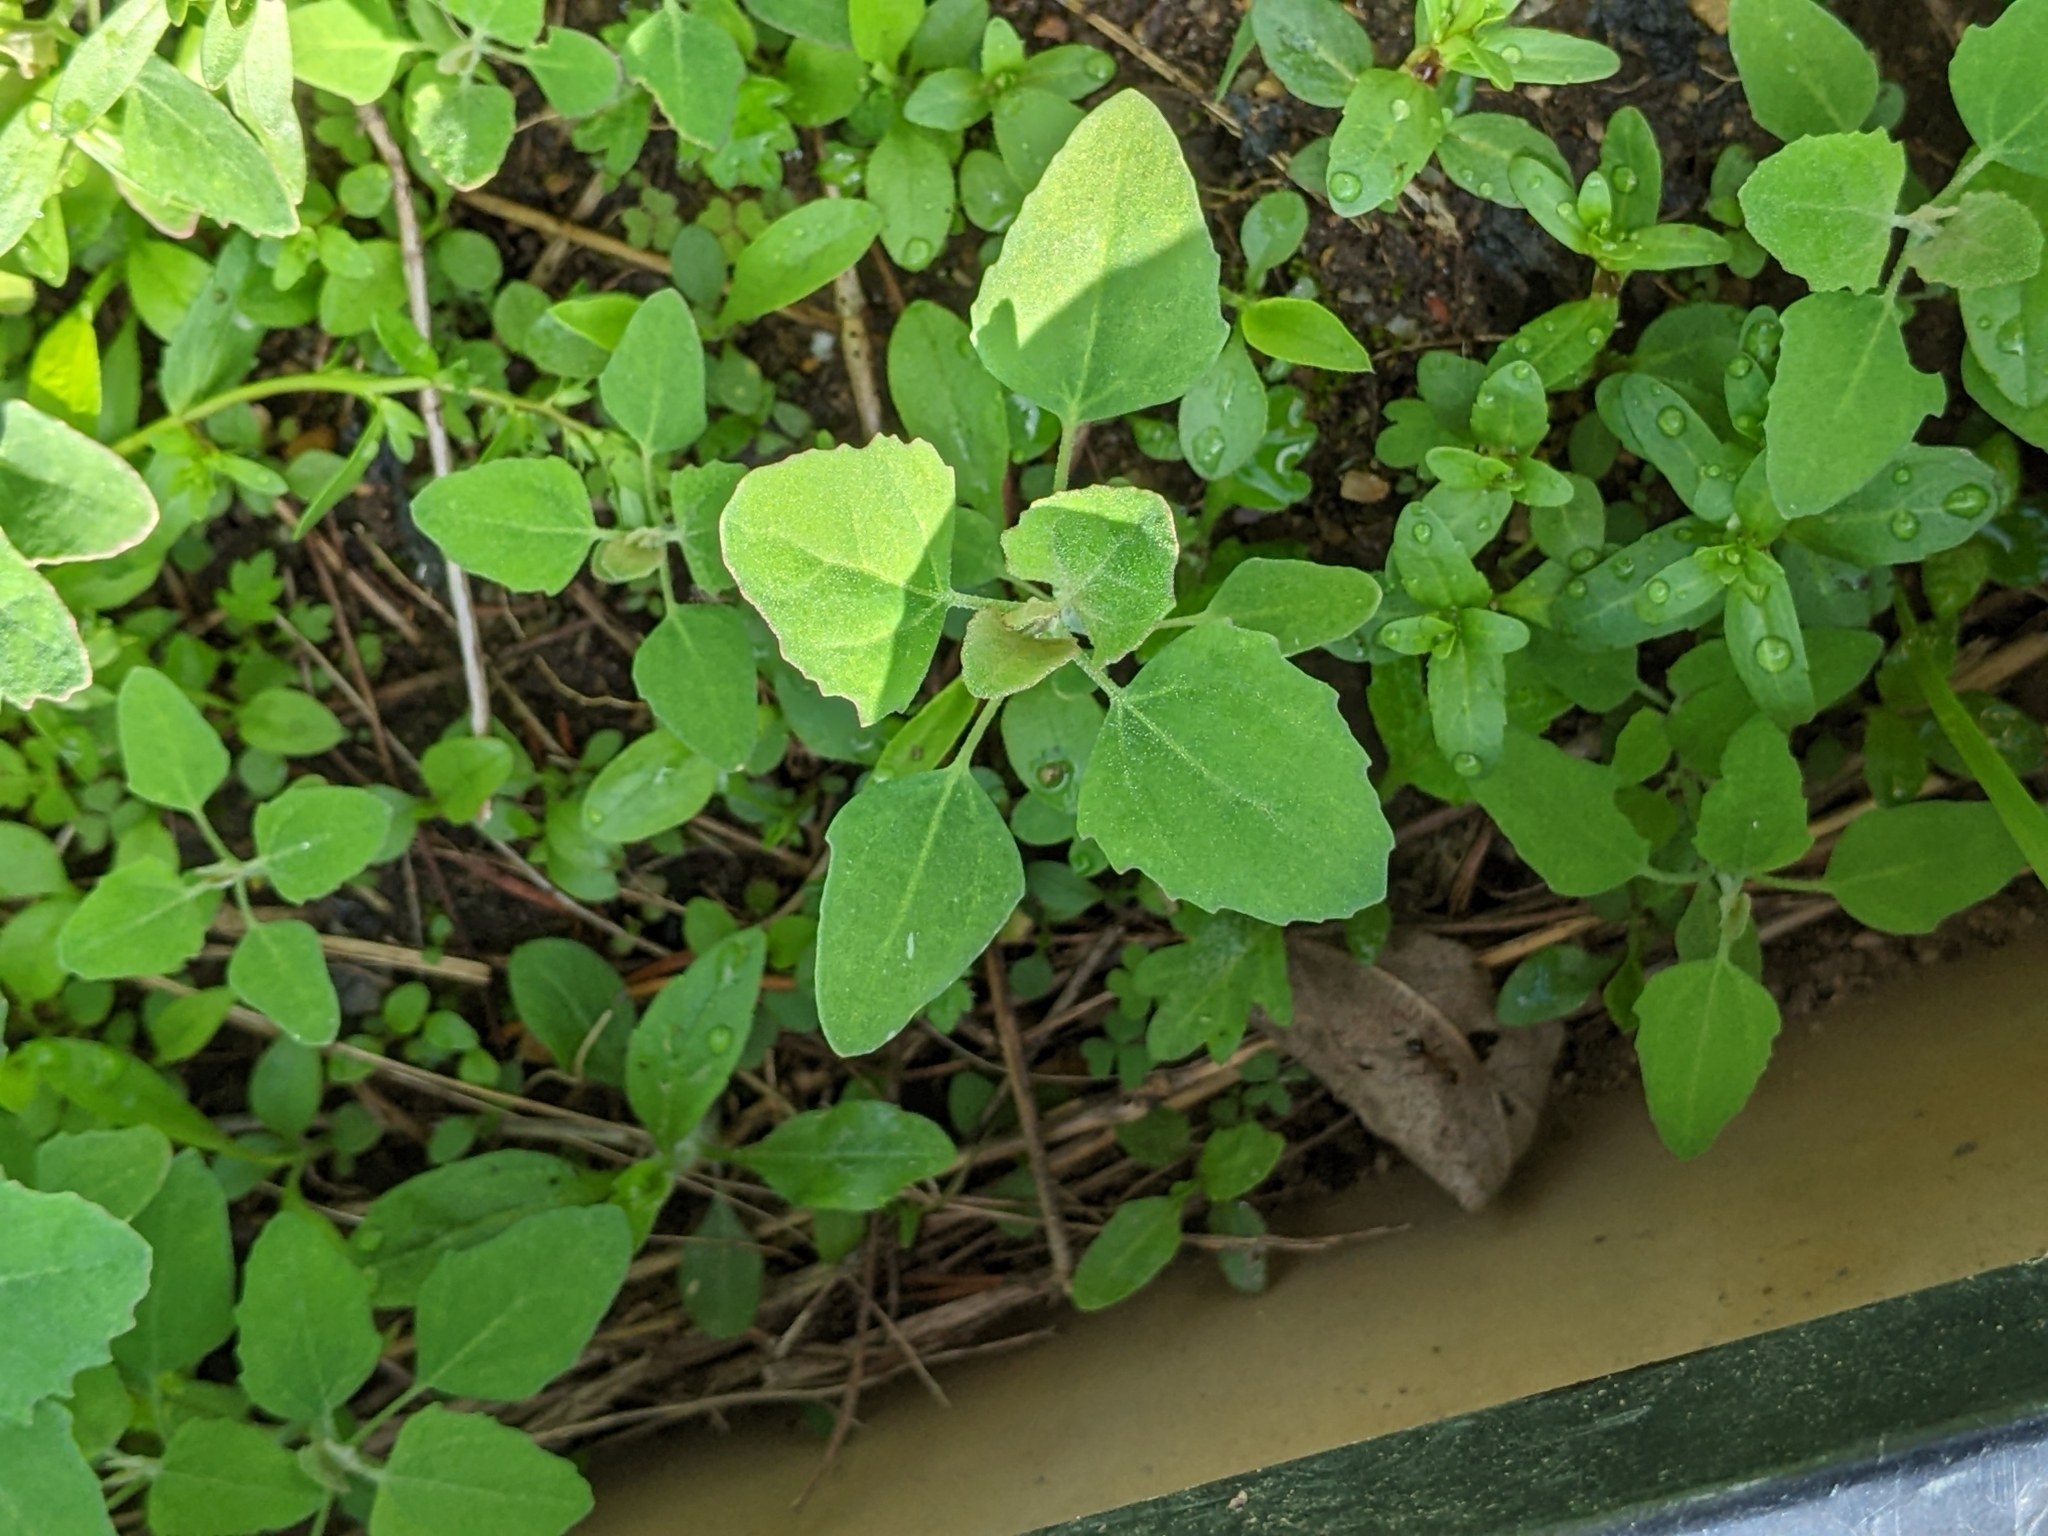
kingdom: Plantae
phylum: Tracheophyta
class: Magnoliopsida
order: Caryophyllales
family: Amaranthaceae
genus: Chenopodium
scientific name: Chenopodium album
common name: Fat-hen
